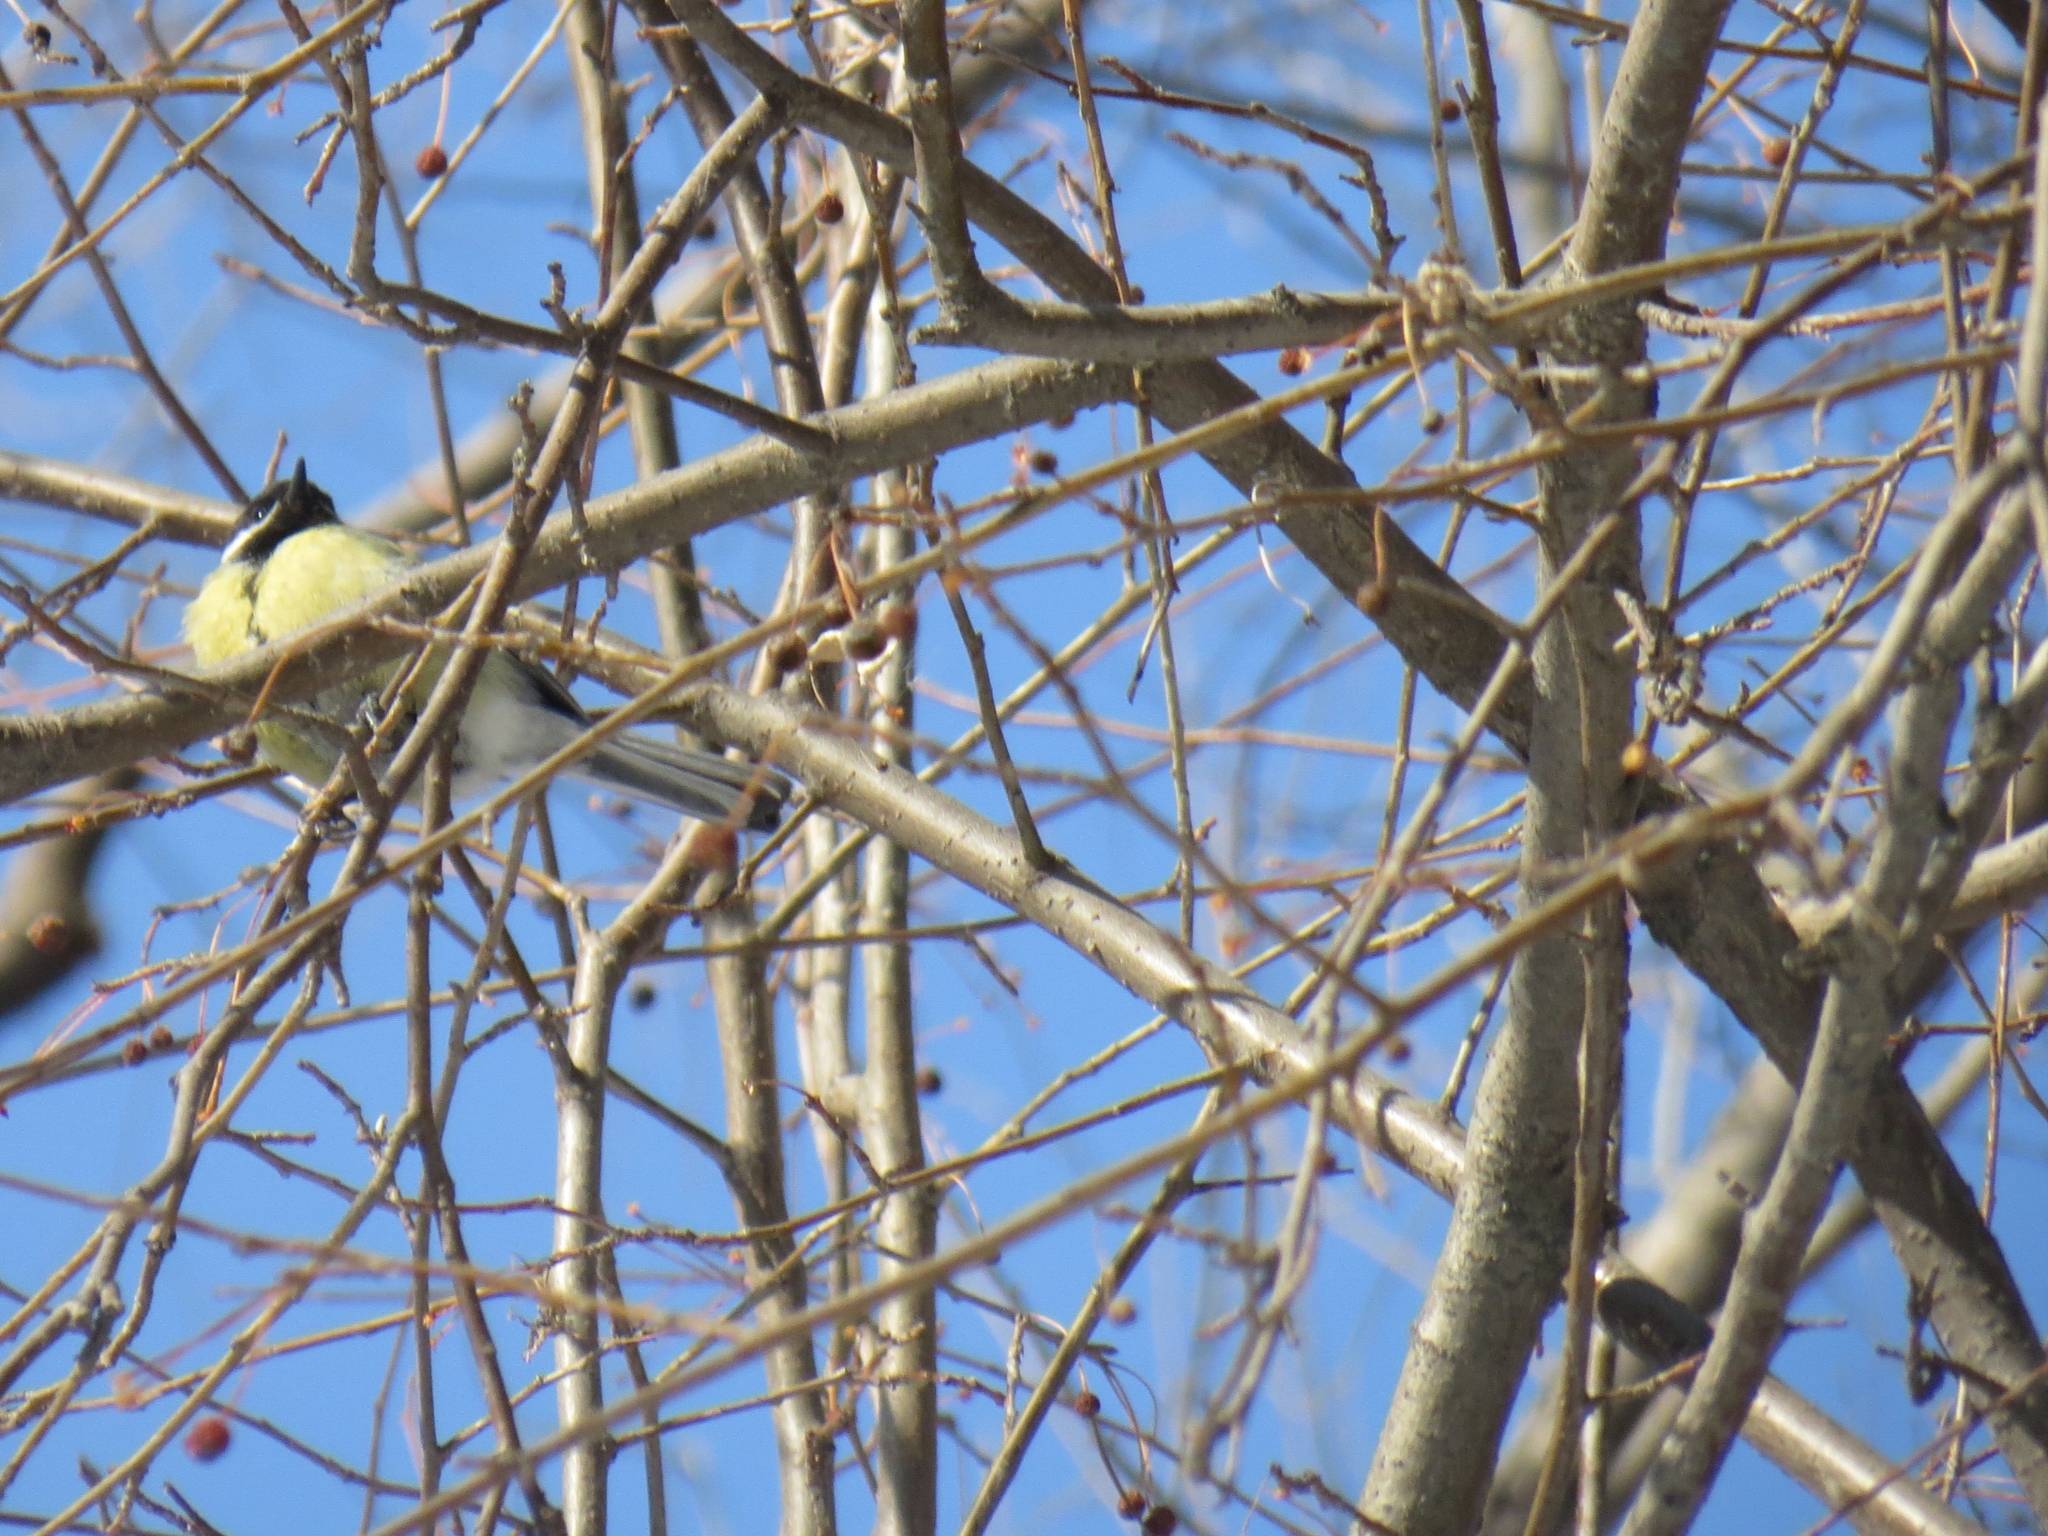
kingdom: Animalia
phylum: Chordata
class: Aves
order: Passeriformes
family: Paridae
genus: Parus
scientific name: Parus major
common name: Great tit
